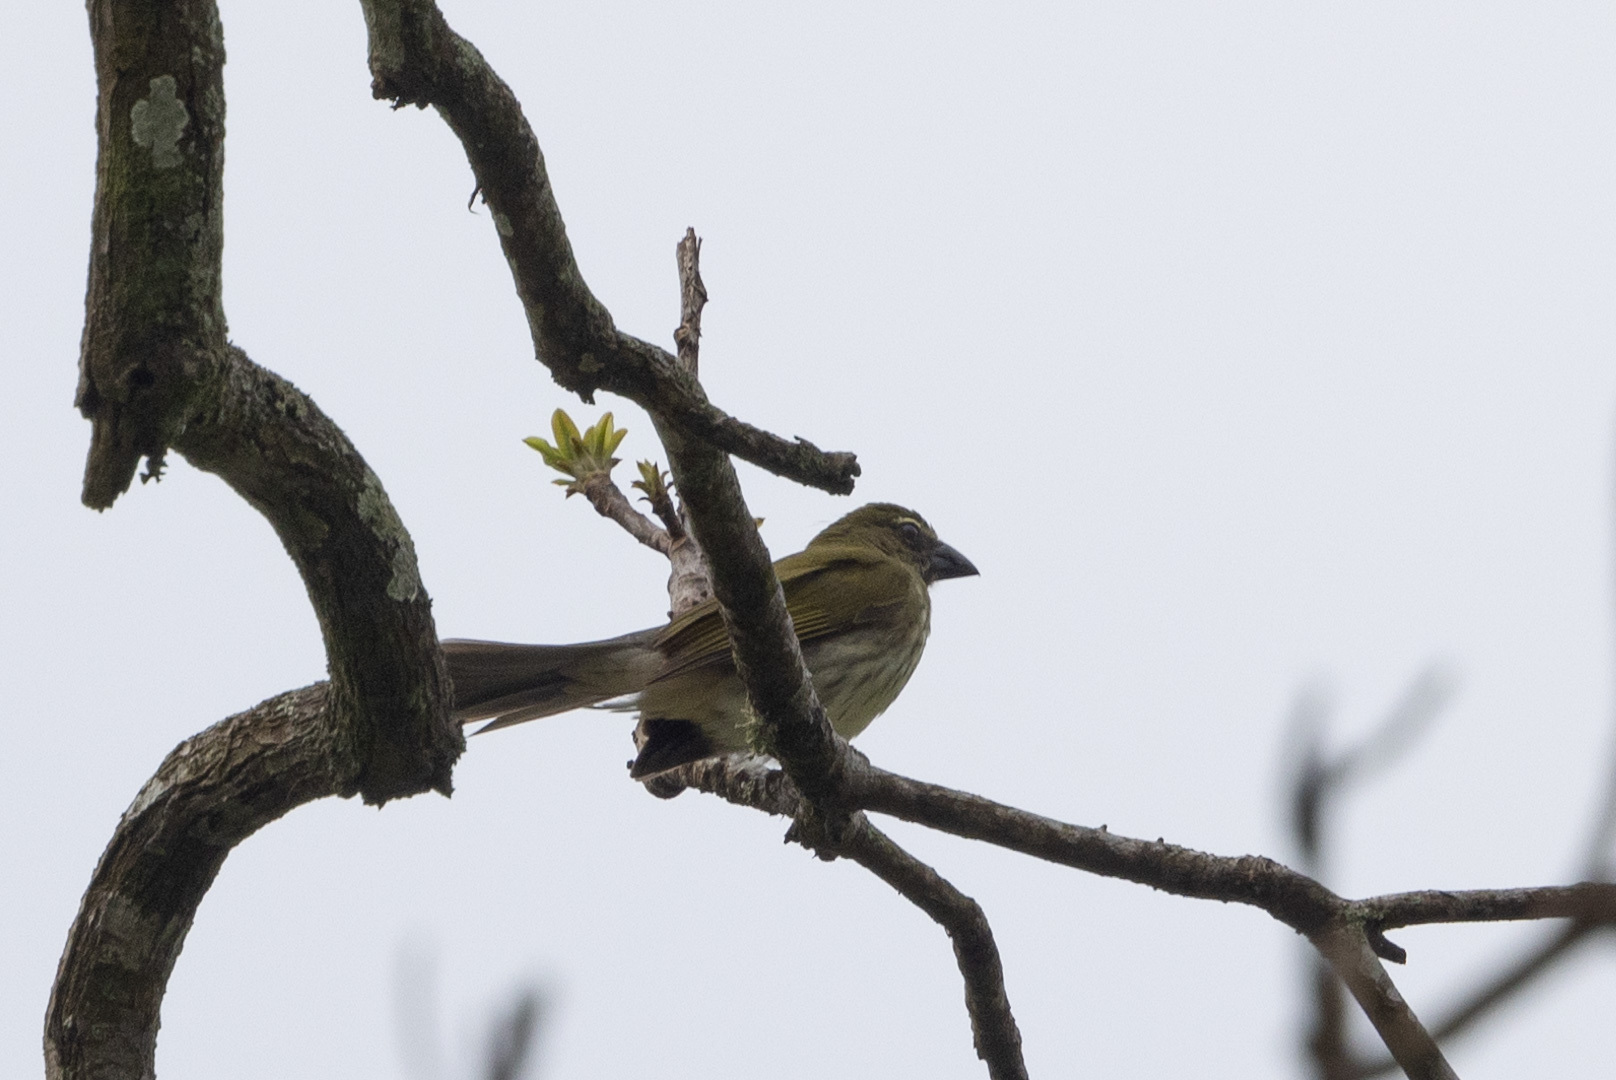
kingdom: Animalia
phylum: Chordata
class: Aves
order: Passeriformes
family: Thraupidae
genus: Saltator
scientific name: Saltator striatipectus
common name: Streaked saltator
